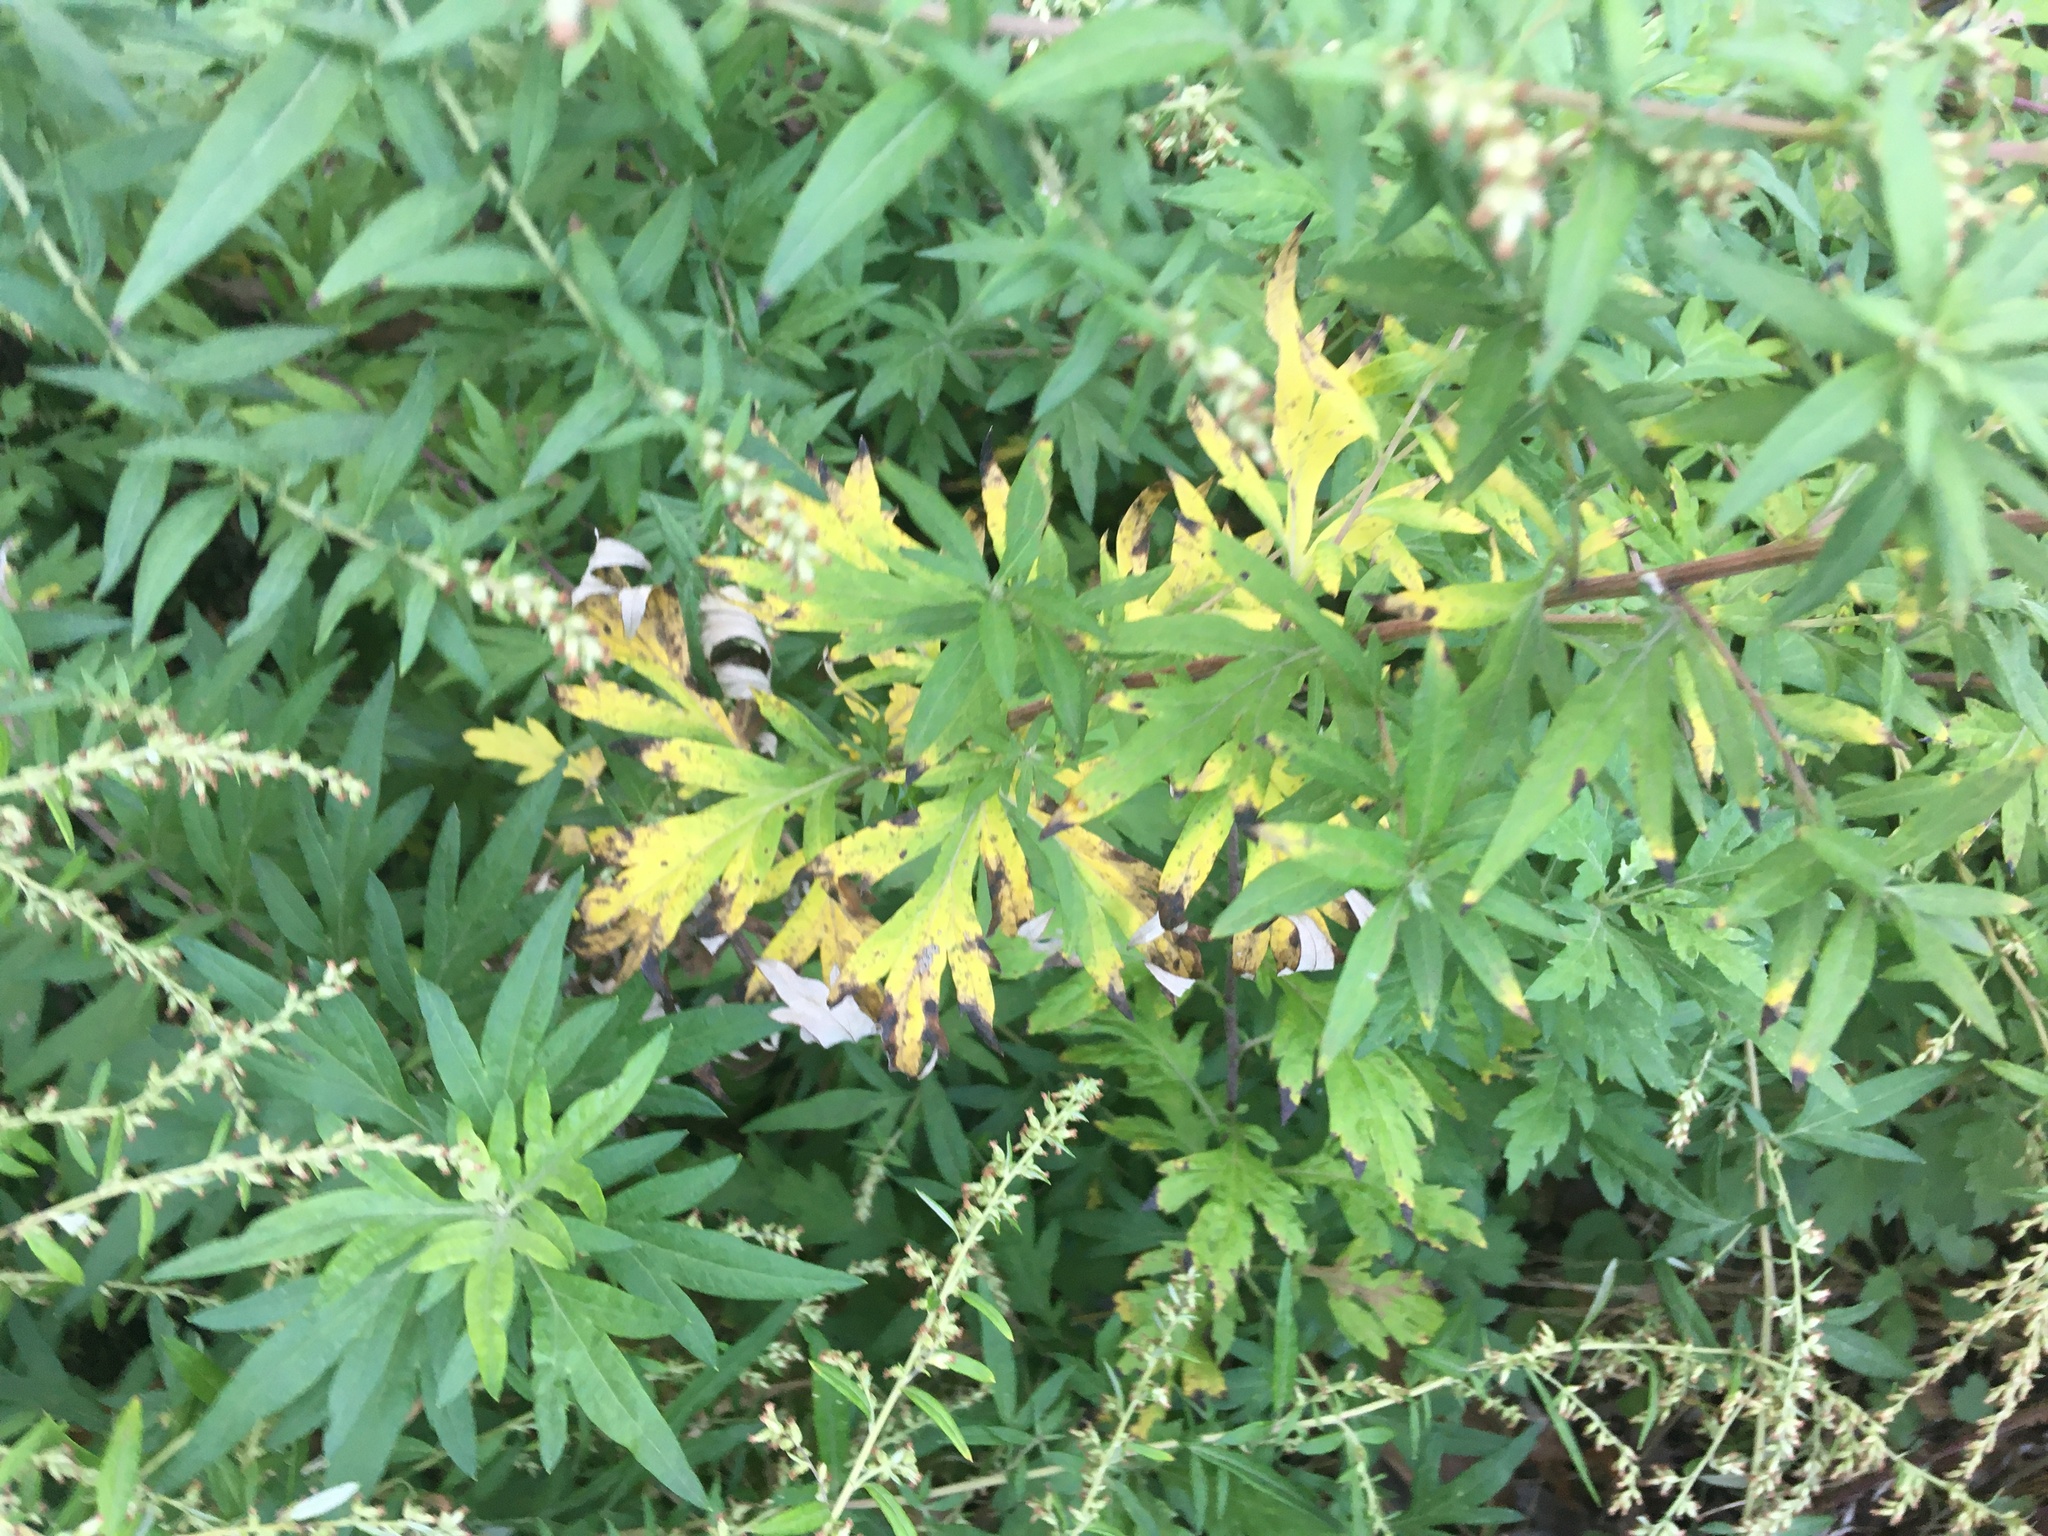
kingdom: Plantae
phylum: Tracheophyta
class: Magnoliopsida
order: Asterales
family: Asteraceae
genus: Artemisia
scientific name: Artemisia vulgaris
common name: Mugwort
